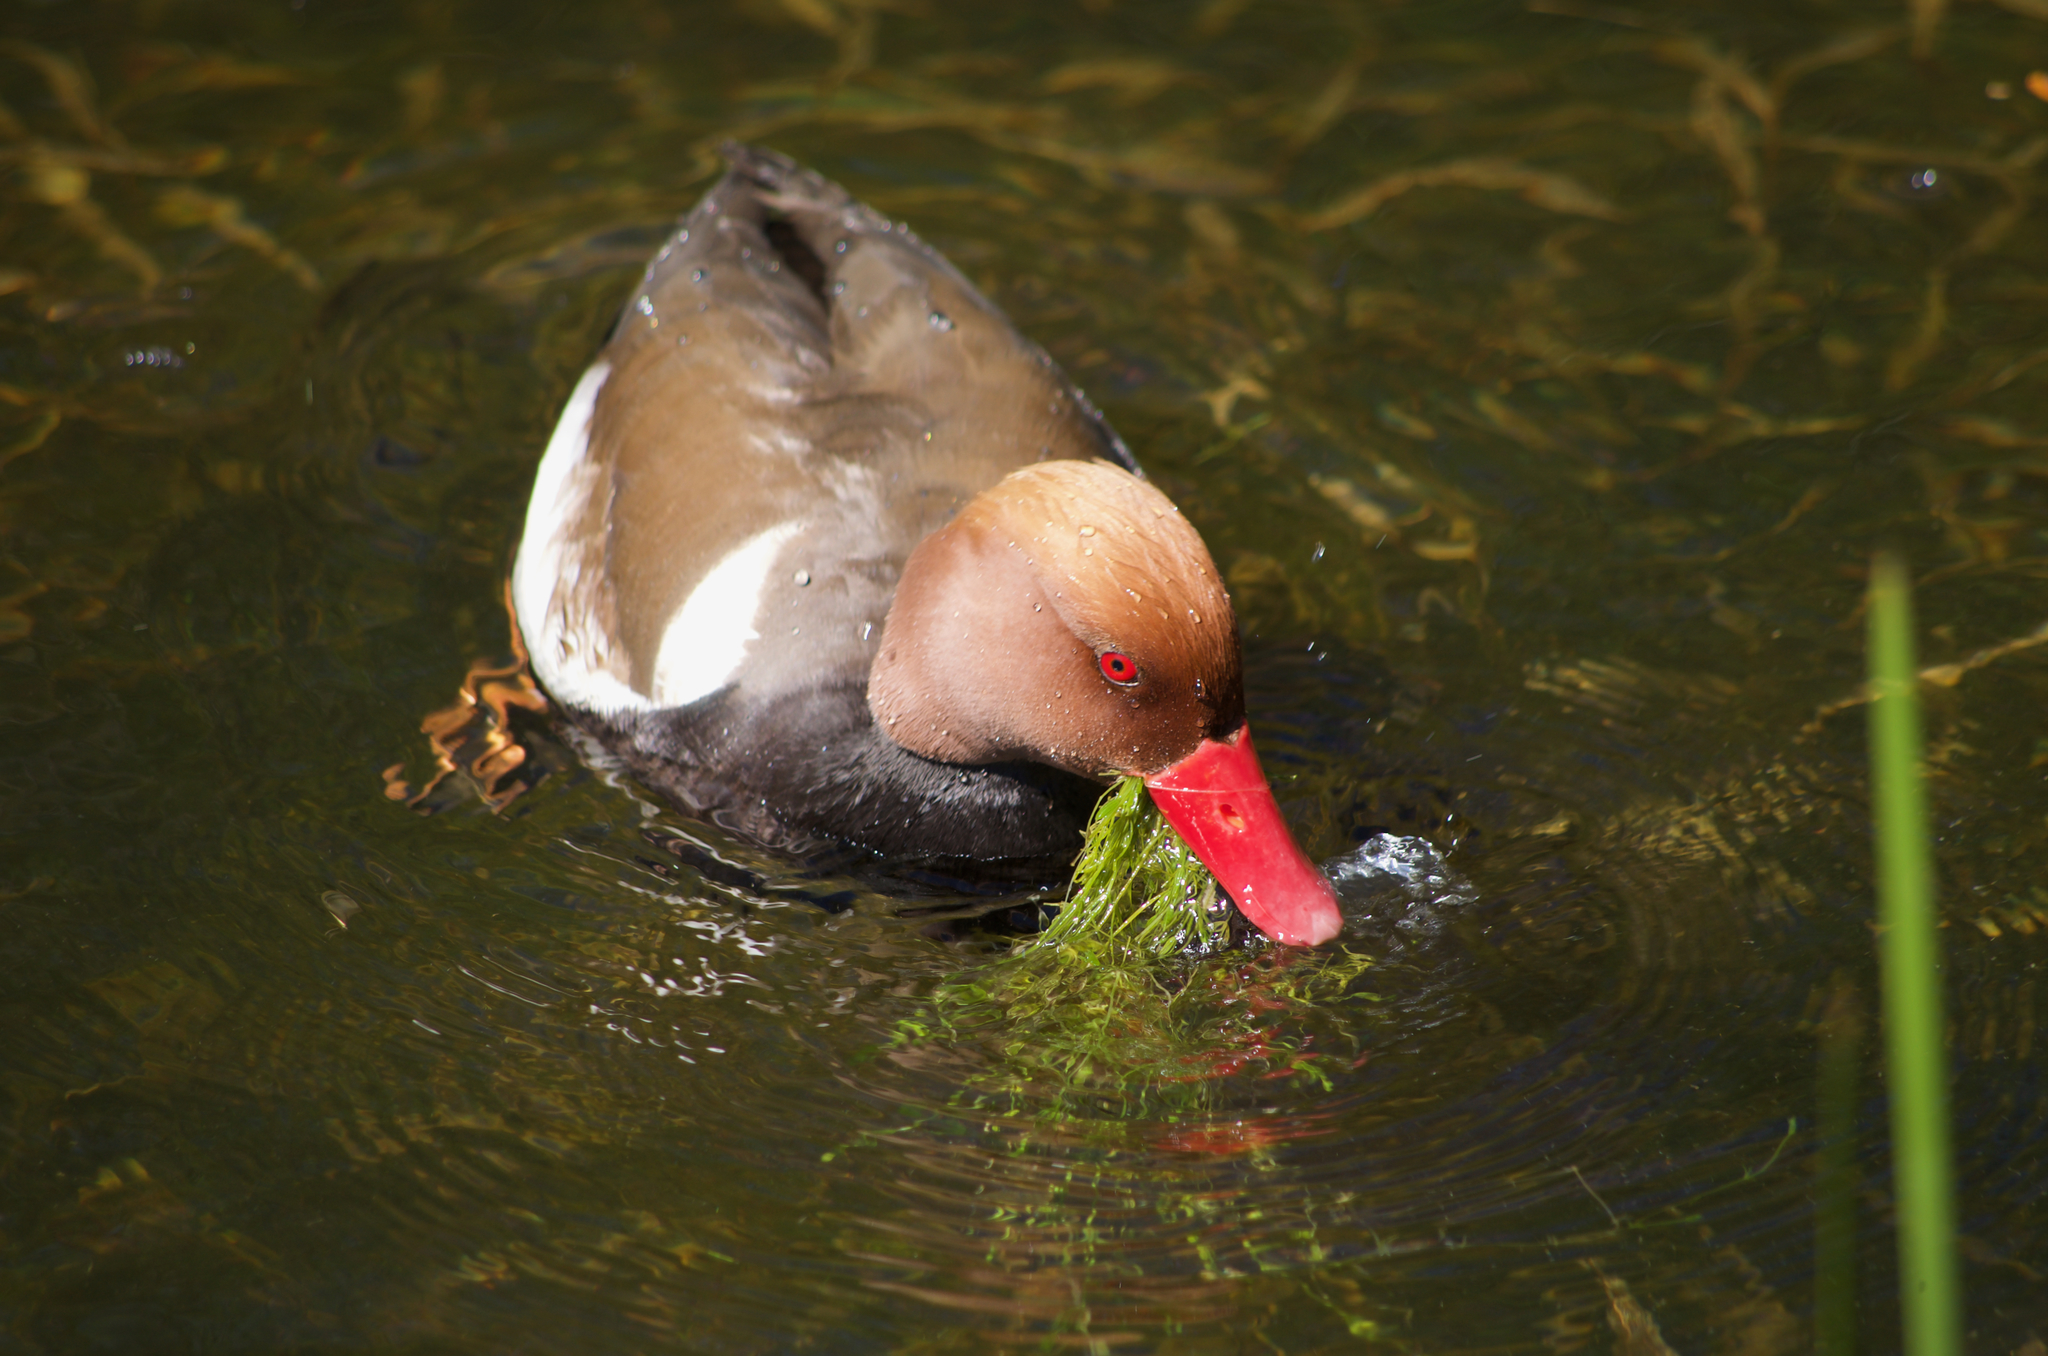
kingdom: Animalia
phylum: Chordata
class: Aves
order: Anseriformes
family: Anatidae
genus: Netta
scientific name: Netta rufina
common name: Red-crested pochard
